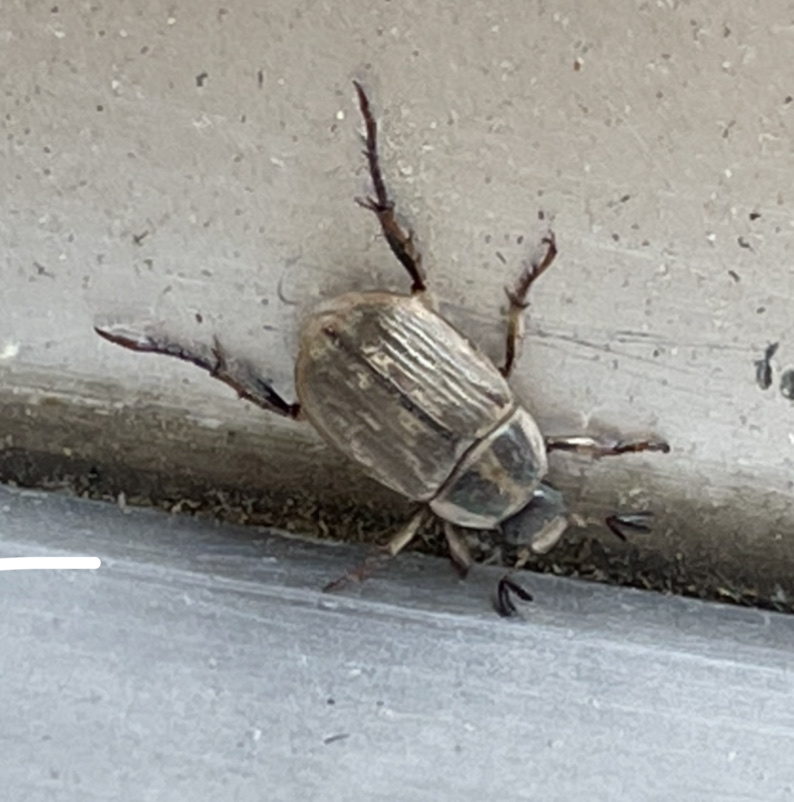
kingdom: Animalia
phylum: Arthropoda
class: Insecta
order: Coleoptera
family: Scarabaeidae
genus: Exomala
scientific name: Exomala orientalis
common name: Oriental beetle
